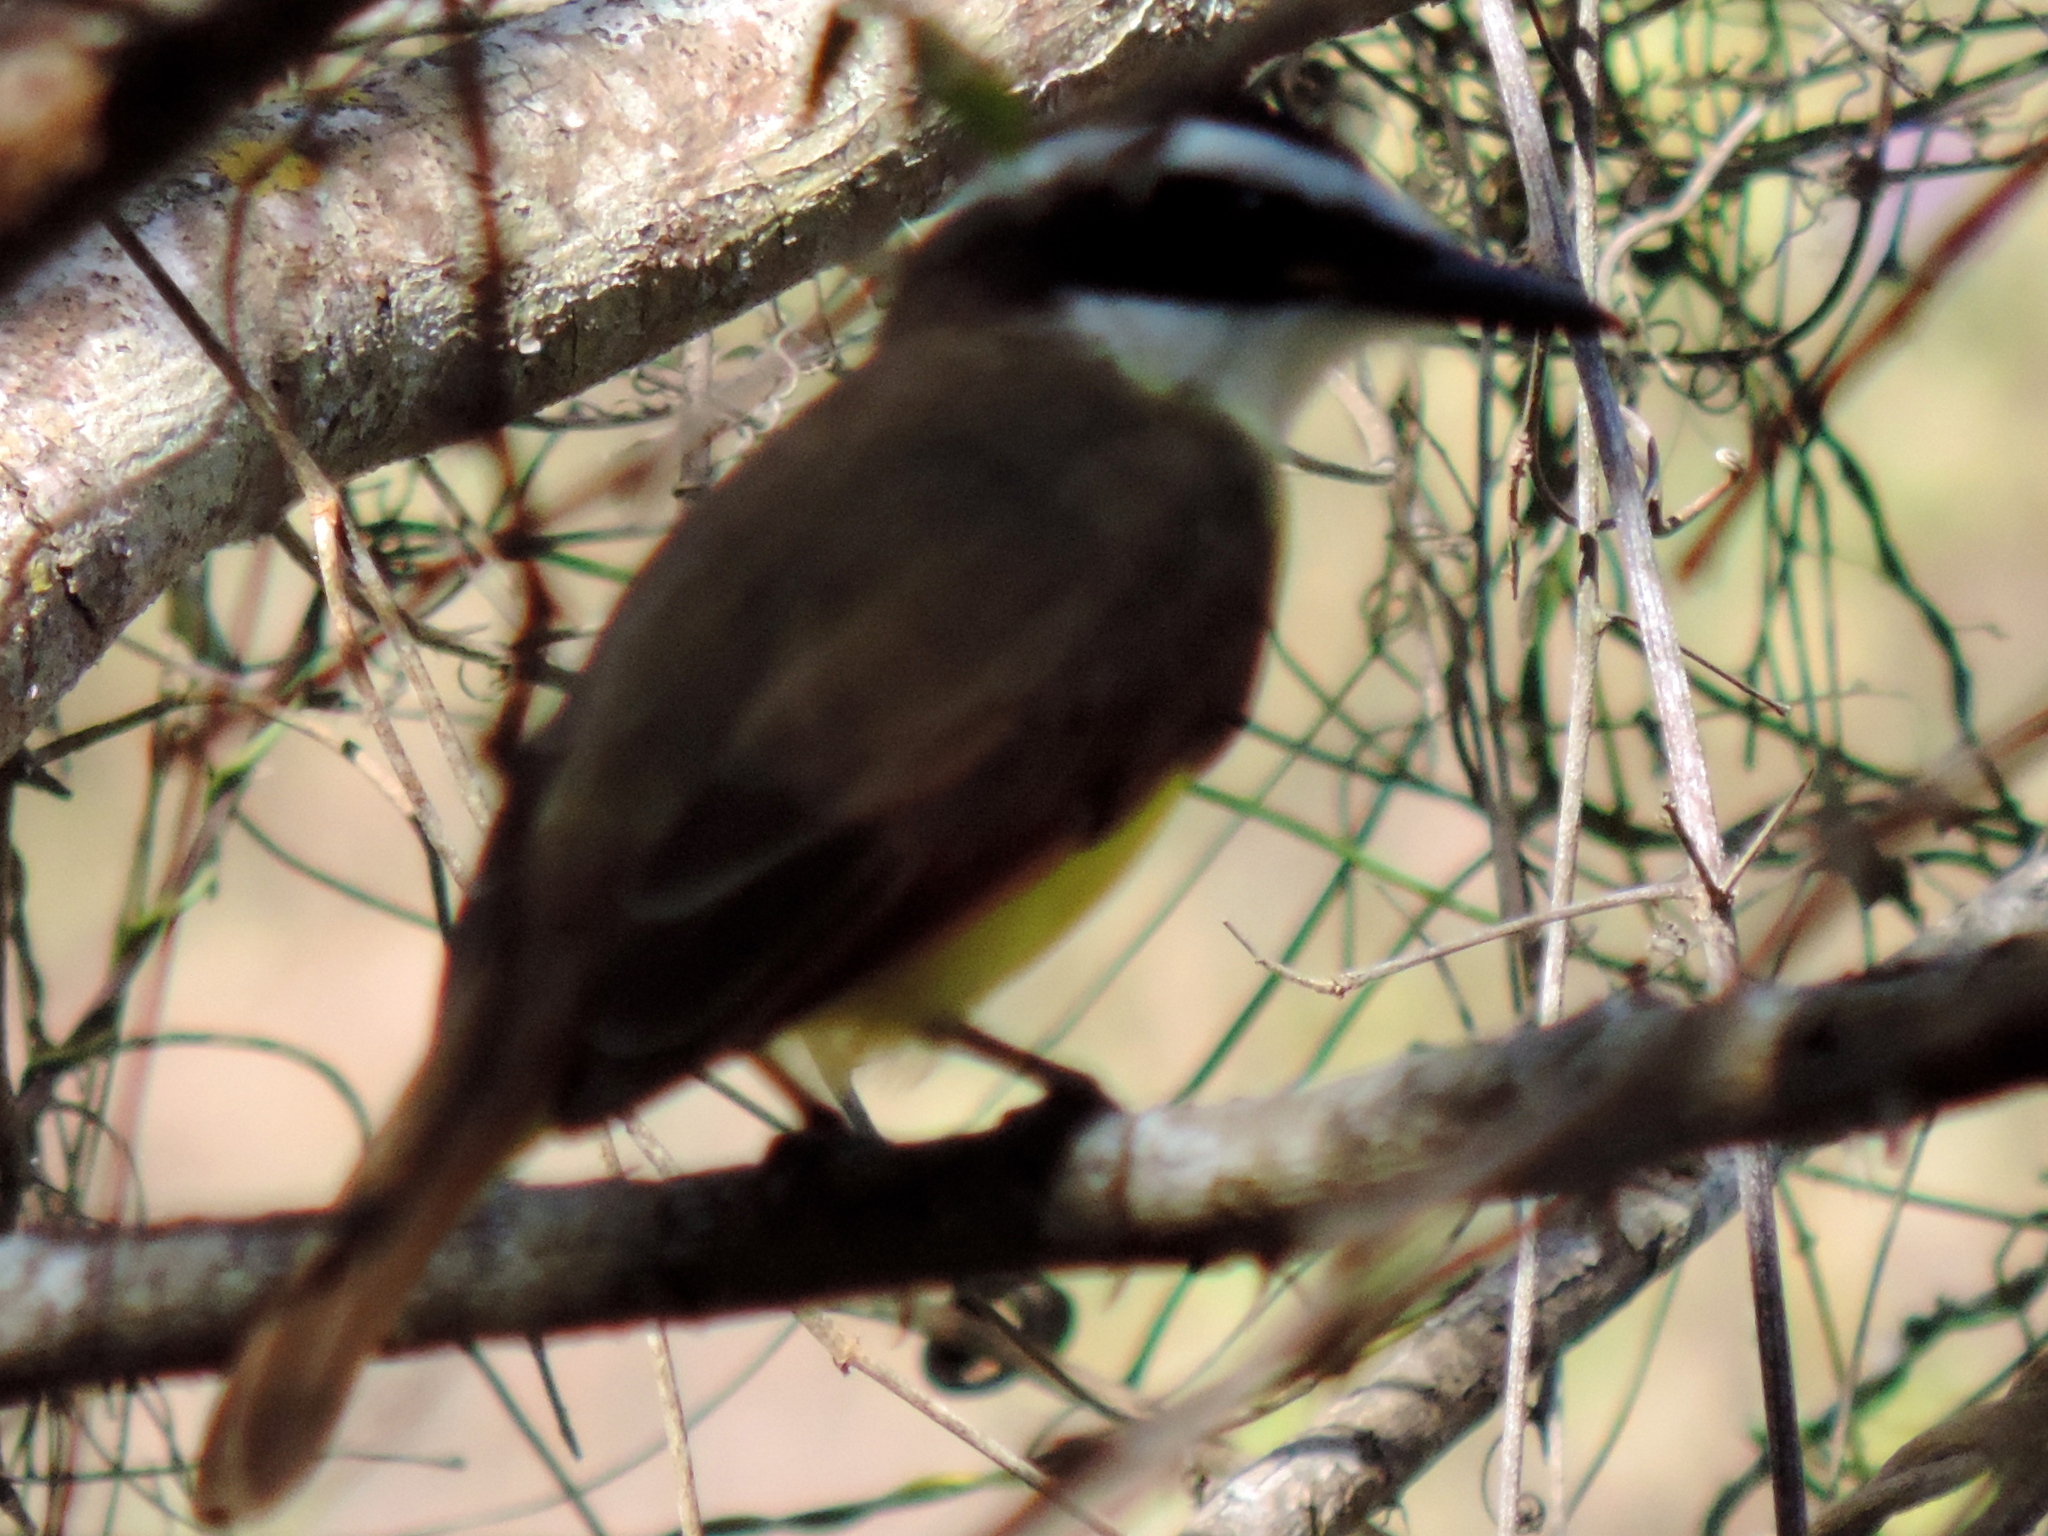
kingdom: Animalia
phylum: Chordata
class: Aves
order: Passeriformes
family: Tyrannidae
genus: Pitangus
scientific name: Pitangus sulphuratus
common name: Great kiskadee
